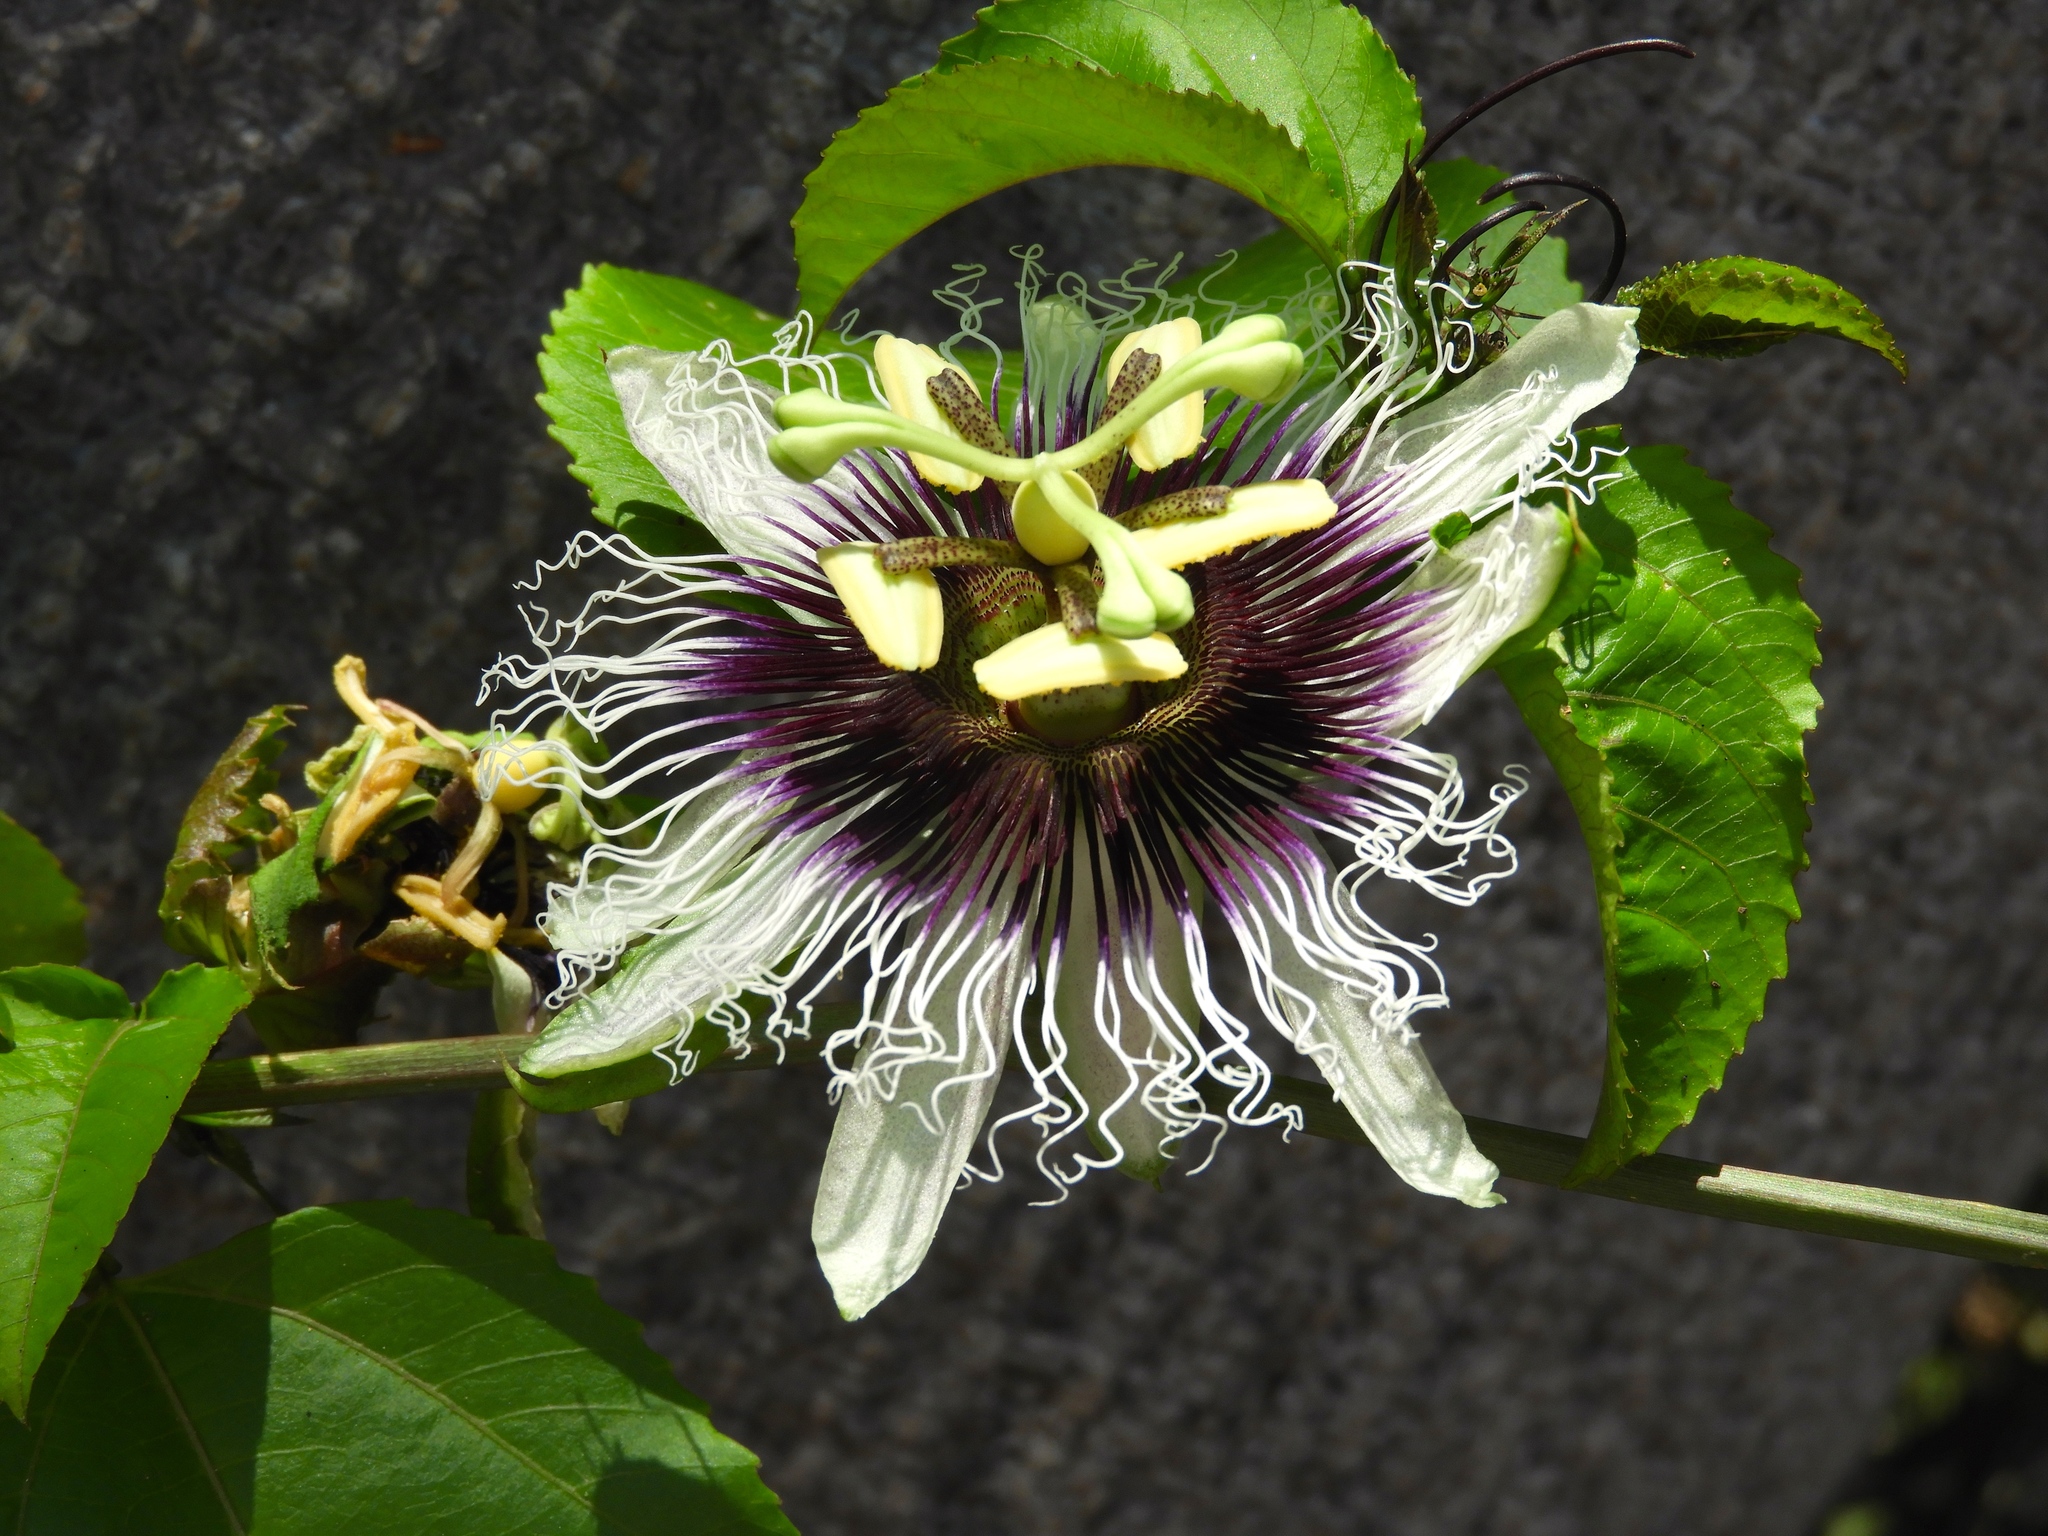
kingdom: Plantae
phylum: Tracheophyta
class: Magnoliopsida
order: Malpighiales
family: Passifloraceae
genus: Passiflora
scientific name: Passiflora edulis
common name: Purple granadilla
